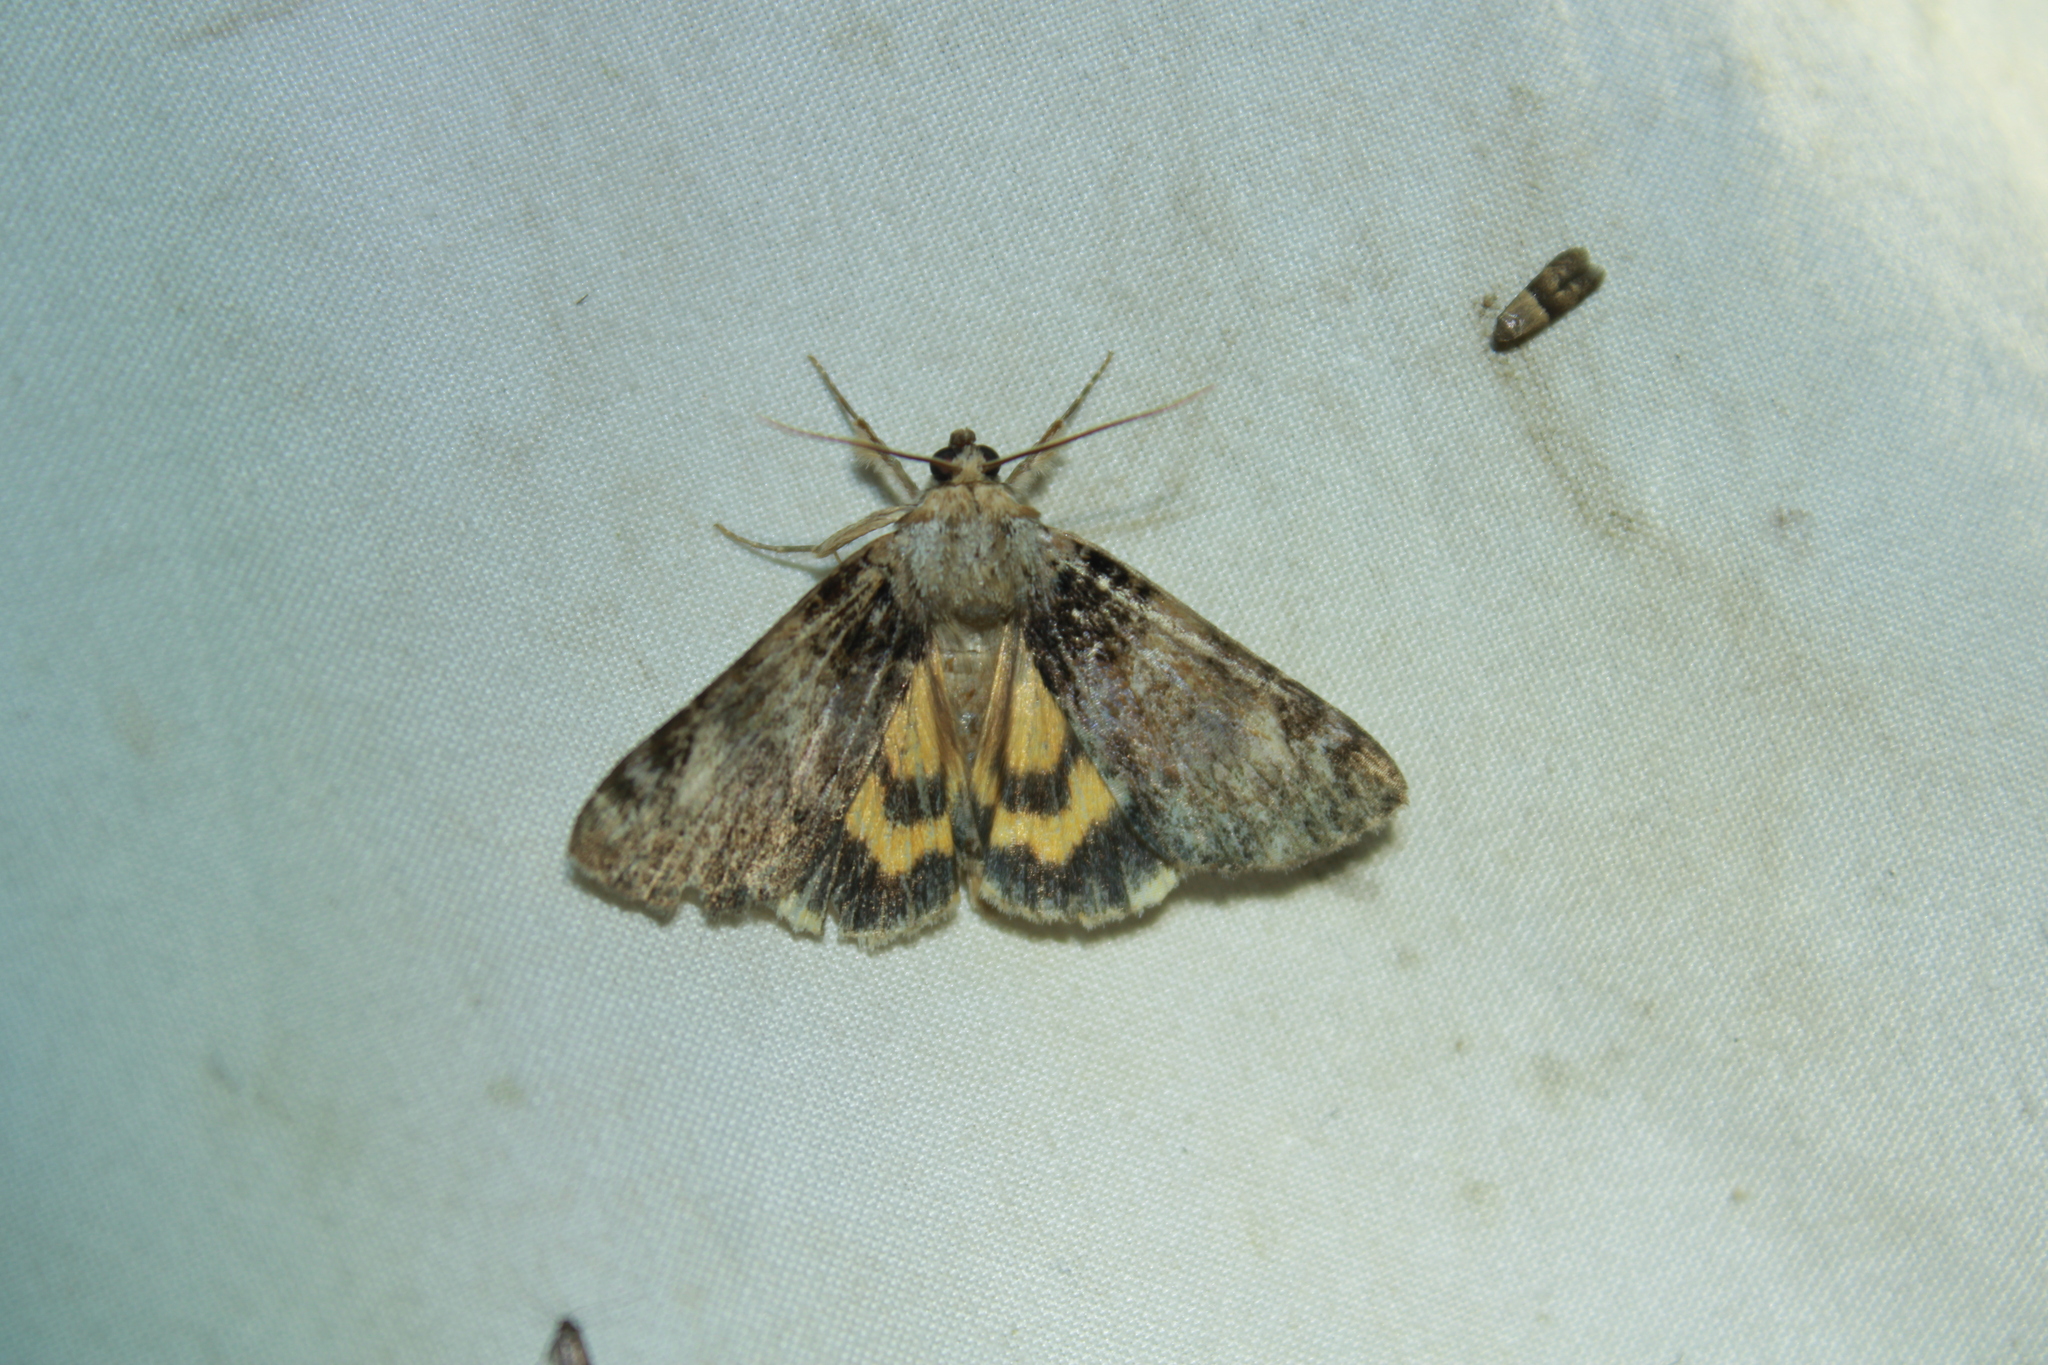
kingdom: Animalia
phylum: Arthropoda
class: Insecta
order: Lepidoptera
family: Erebidae
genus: Catocala
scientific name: Catocala minuta
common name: Little underwing
